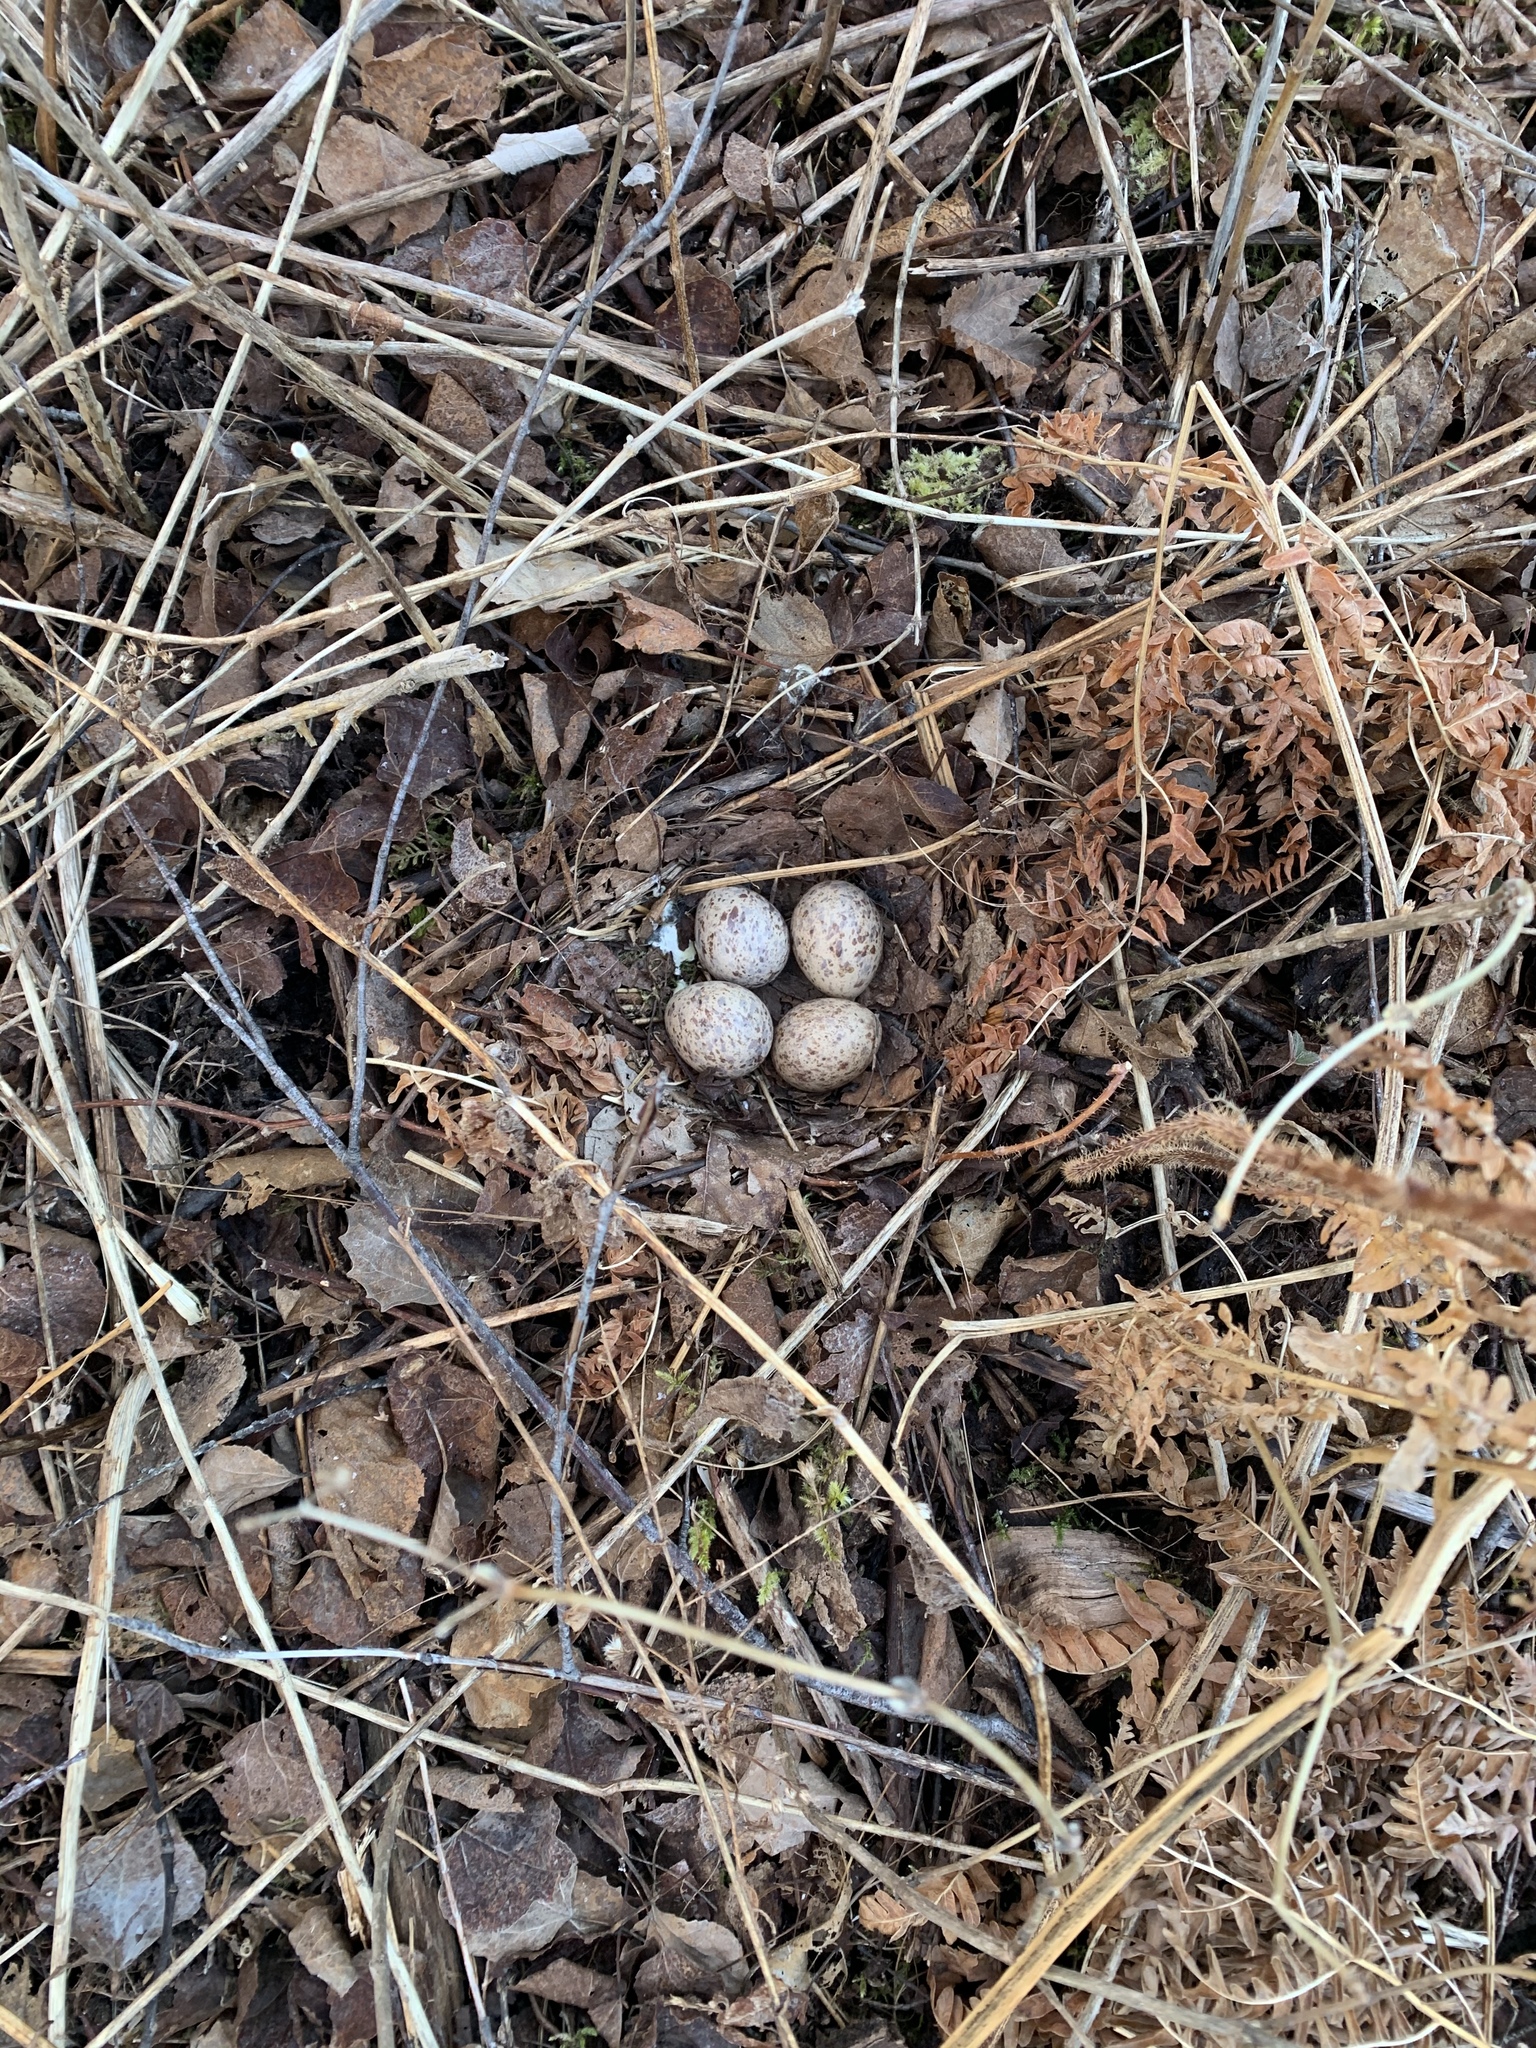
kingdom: Animalia
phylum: Chordata
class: Aves
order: Charadriiformes
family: Scolopacidae
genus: Scolopax
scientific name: Scolopax minor
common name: American woodcock
